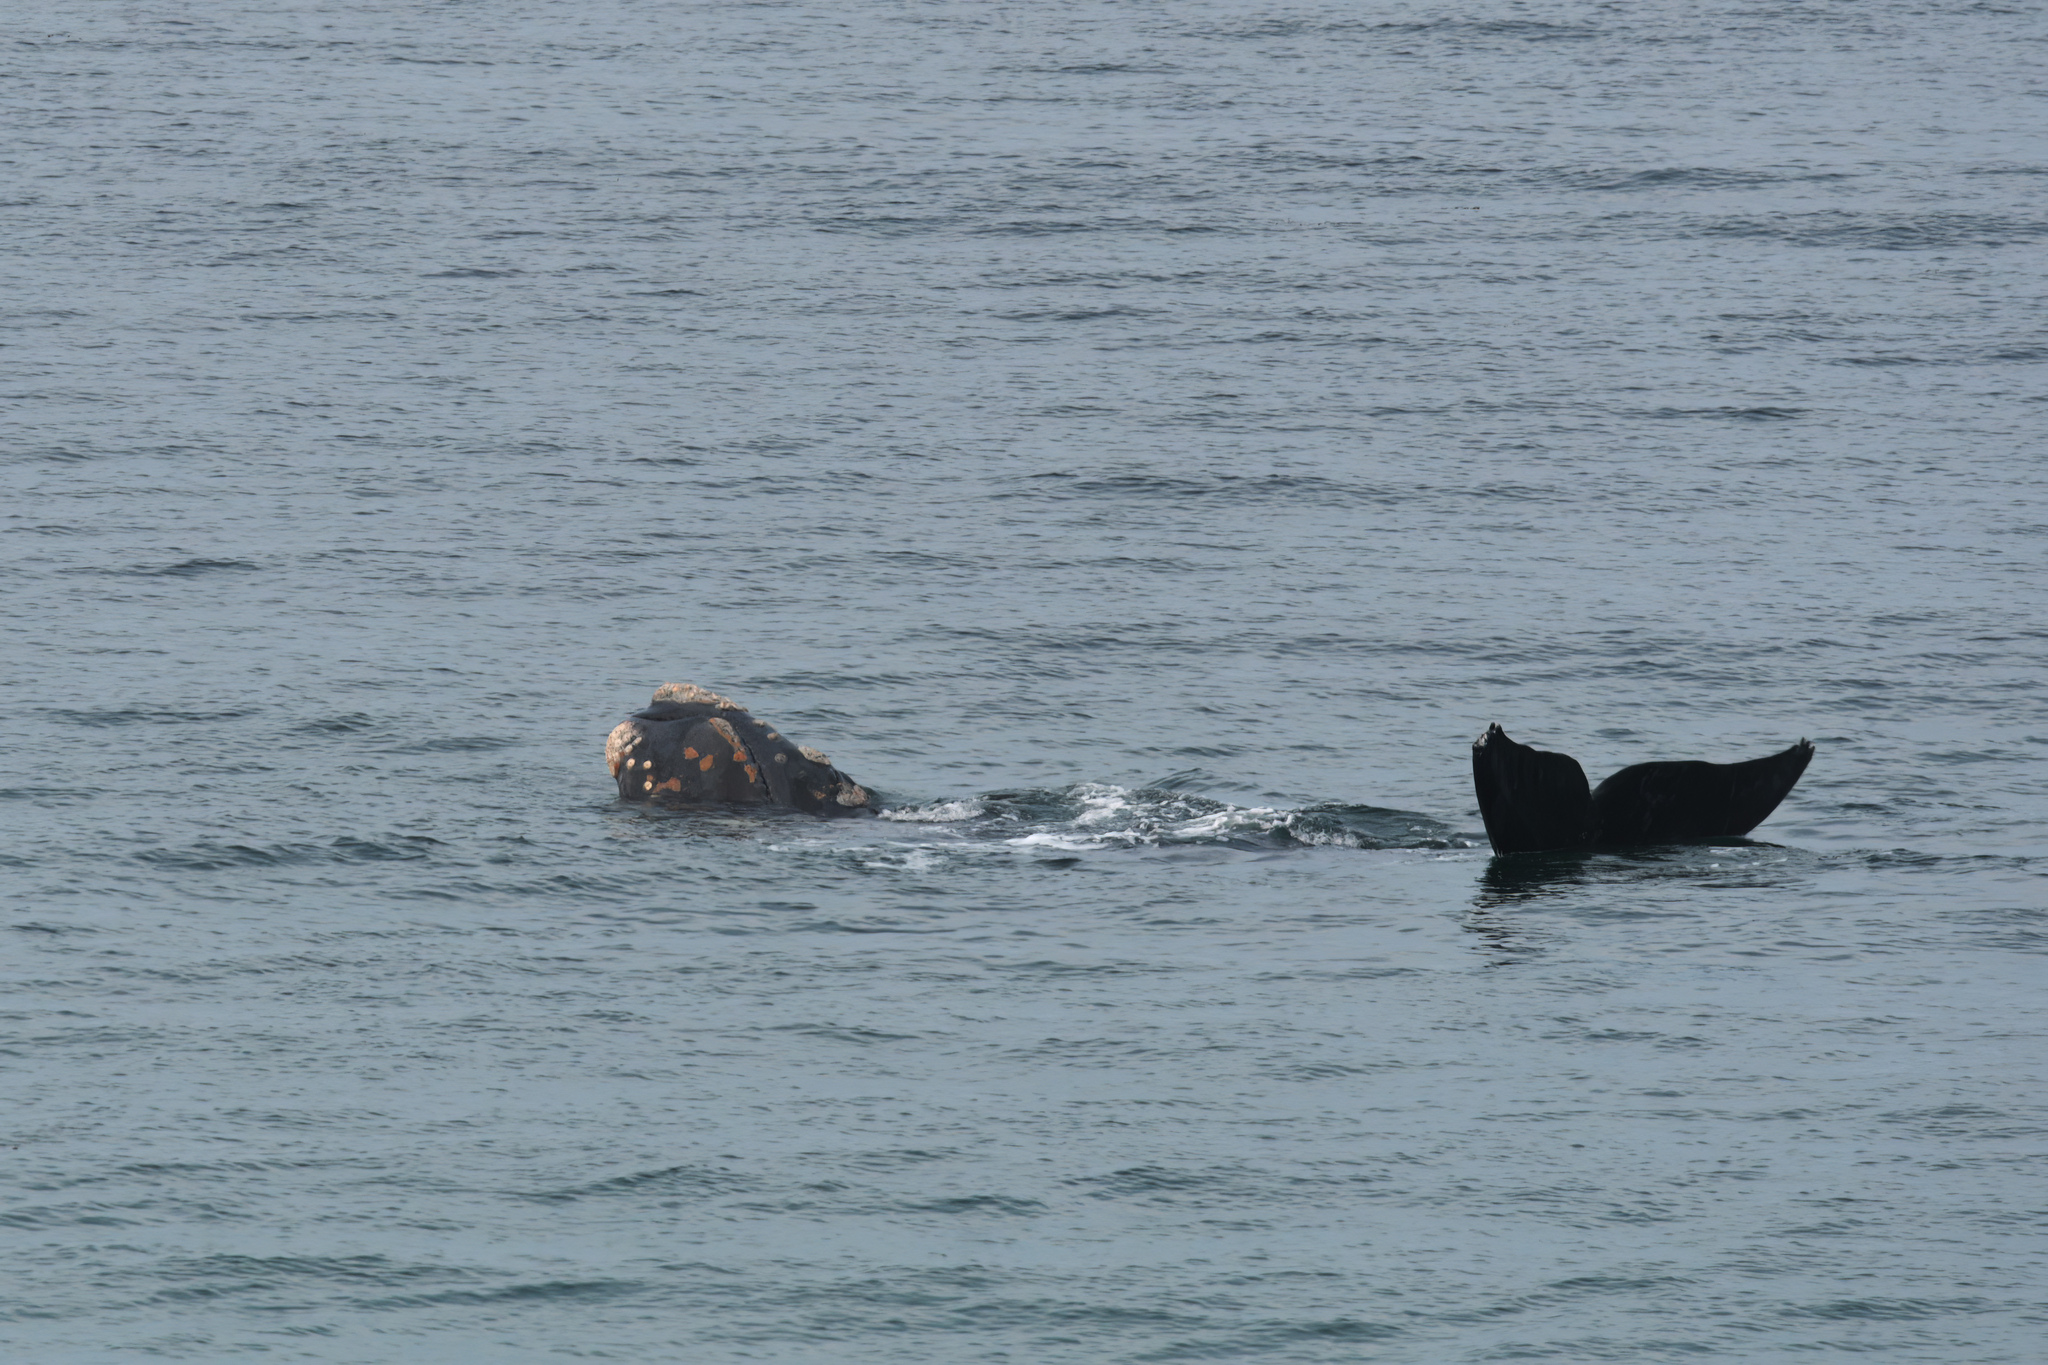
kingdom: Animalia
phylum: Chordata
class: Mammalia
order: Cetacea
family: Balaenidae
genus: Eubalaena
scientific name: Eubalaena australis
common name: Southern right whale
